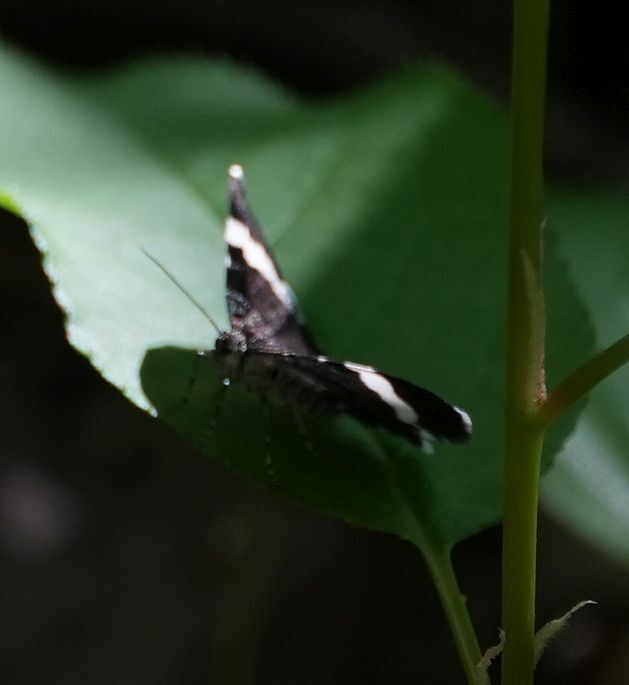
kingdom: Animalia
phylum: Arthropoda
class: Insecta
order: Lepidoptera
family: Geometridae
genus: Trichodezia
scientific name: Trichodezia albovittata
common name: White striped black
